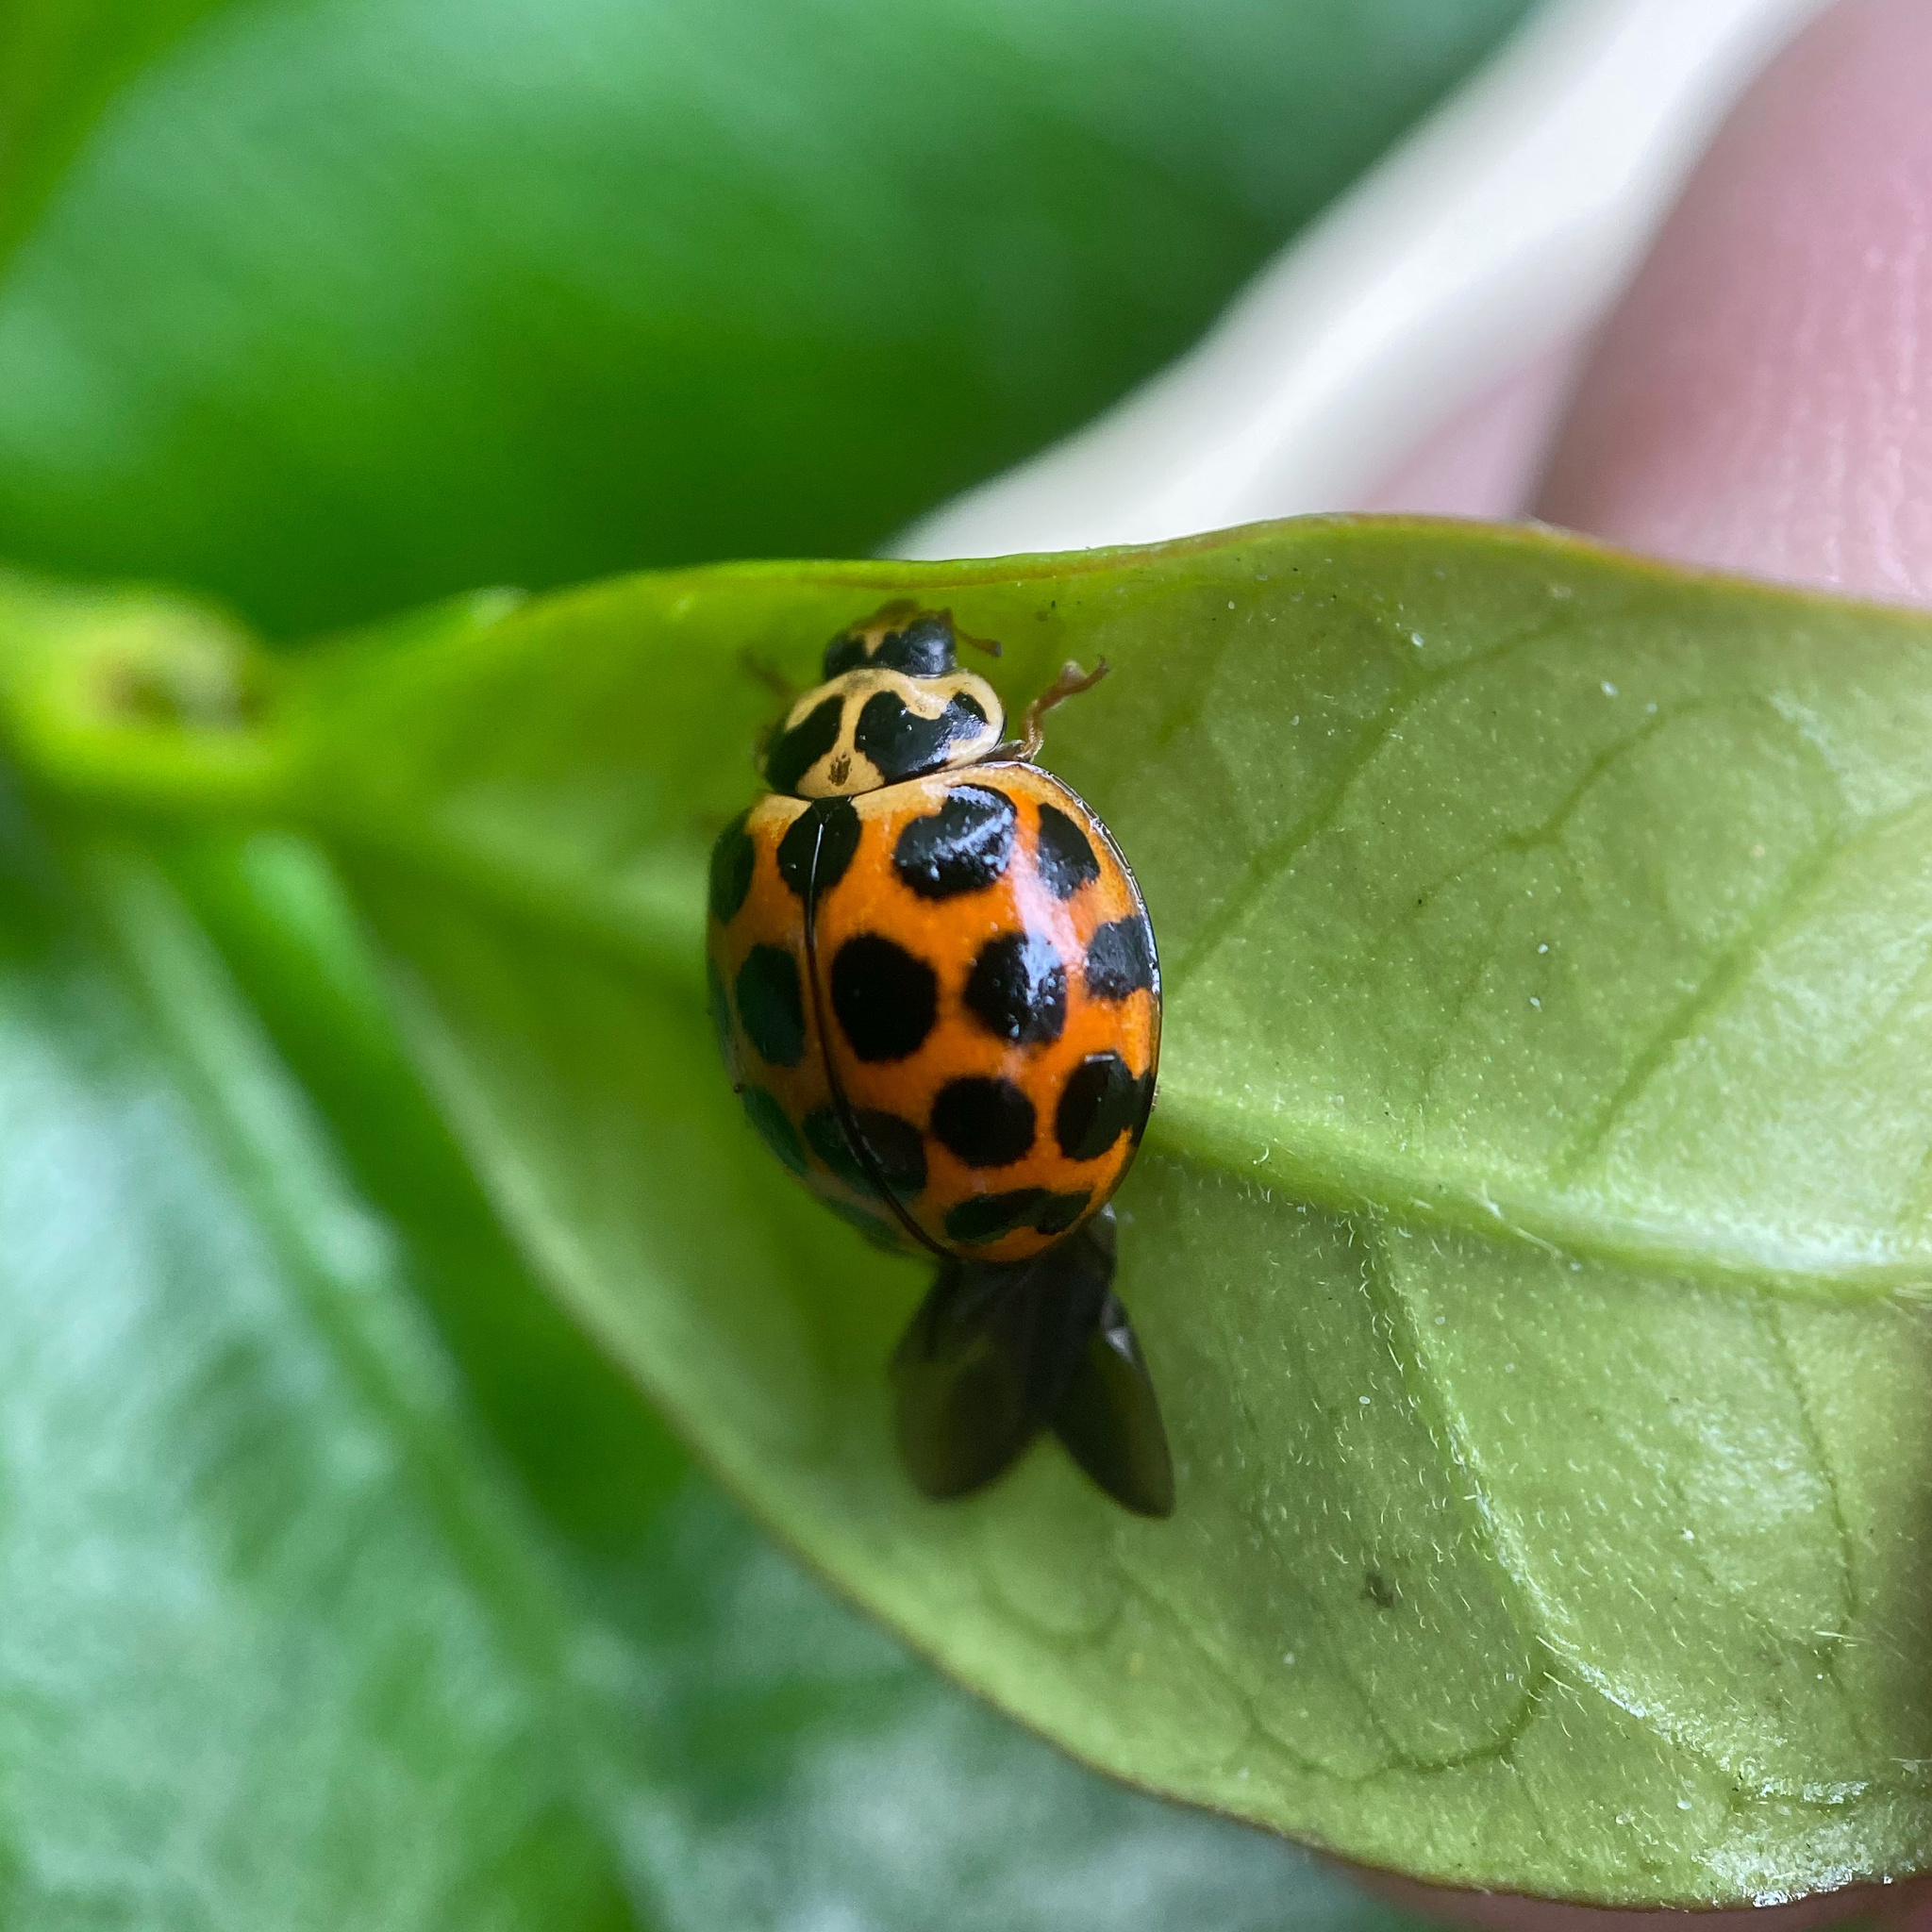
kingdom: Animalia
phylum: Arthropoda
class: Insecta
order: Coleoptera
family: Coccinellidae
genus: Harmonia
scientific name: Harmonia conformis
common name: Common spotted ladybird beetle
